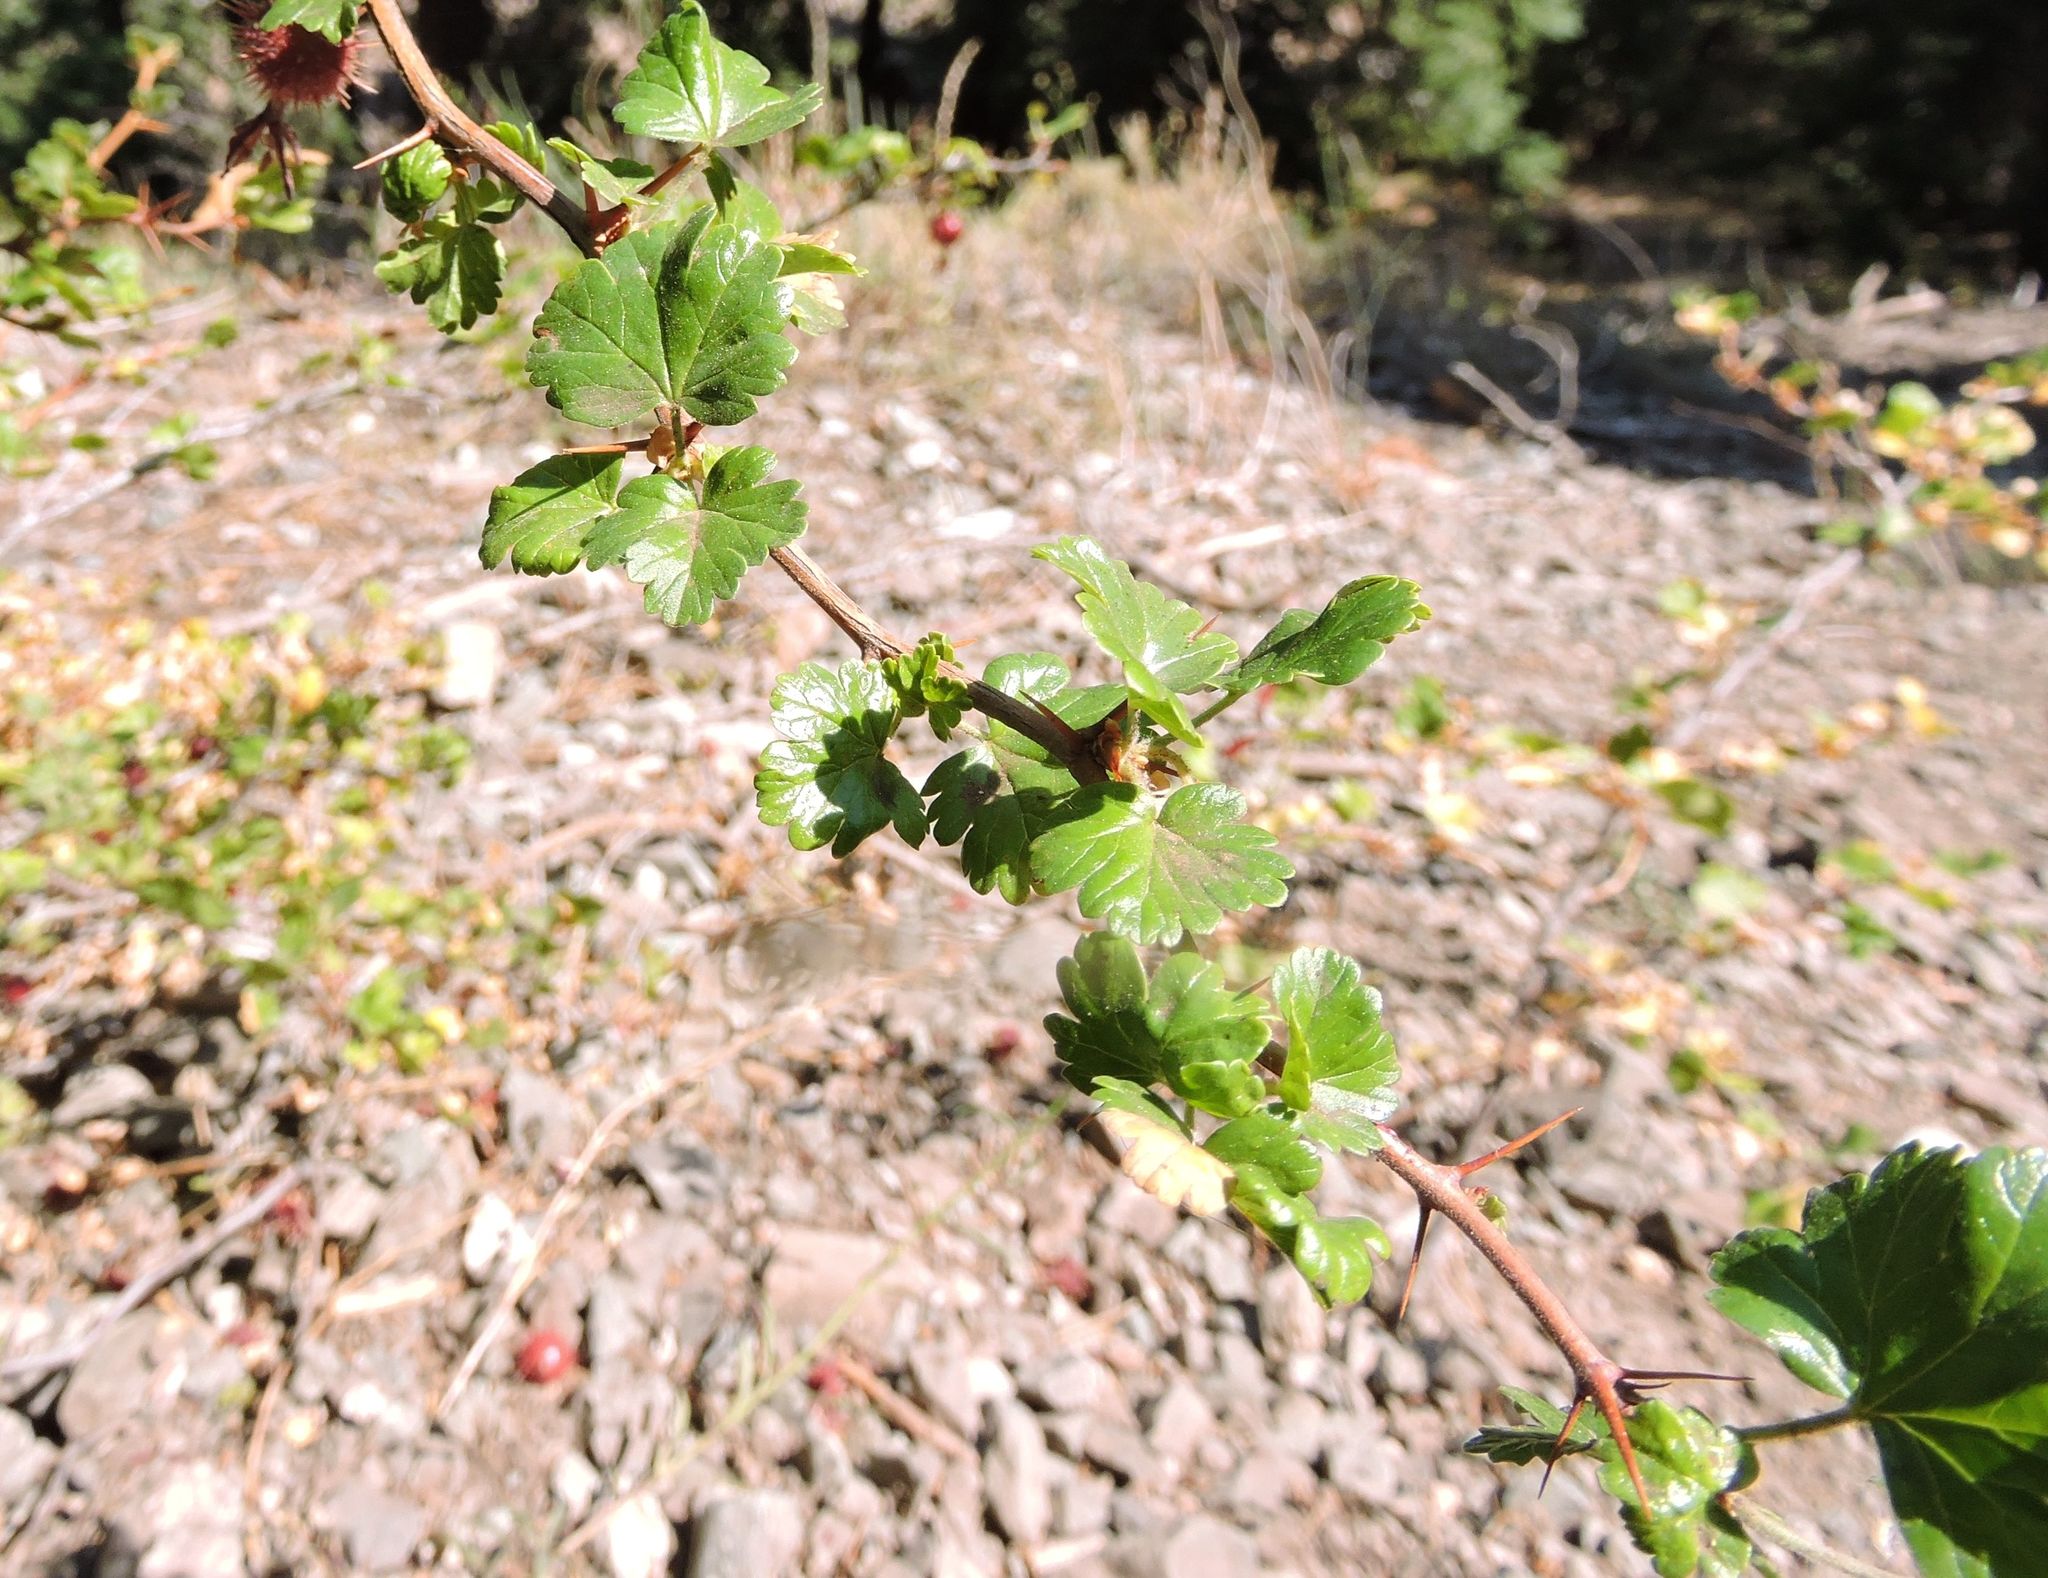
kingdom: Plantae
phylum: Tracheophyta
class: Magnoliopsida
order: Saxifragales
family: Grossulariaceae
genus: Ribes
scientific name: Ribes roezlii
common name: Sierra gooseberry
